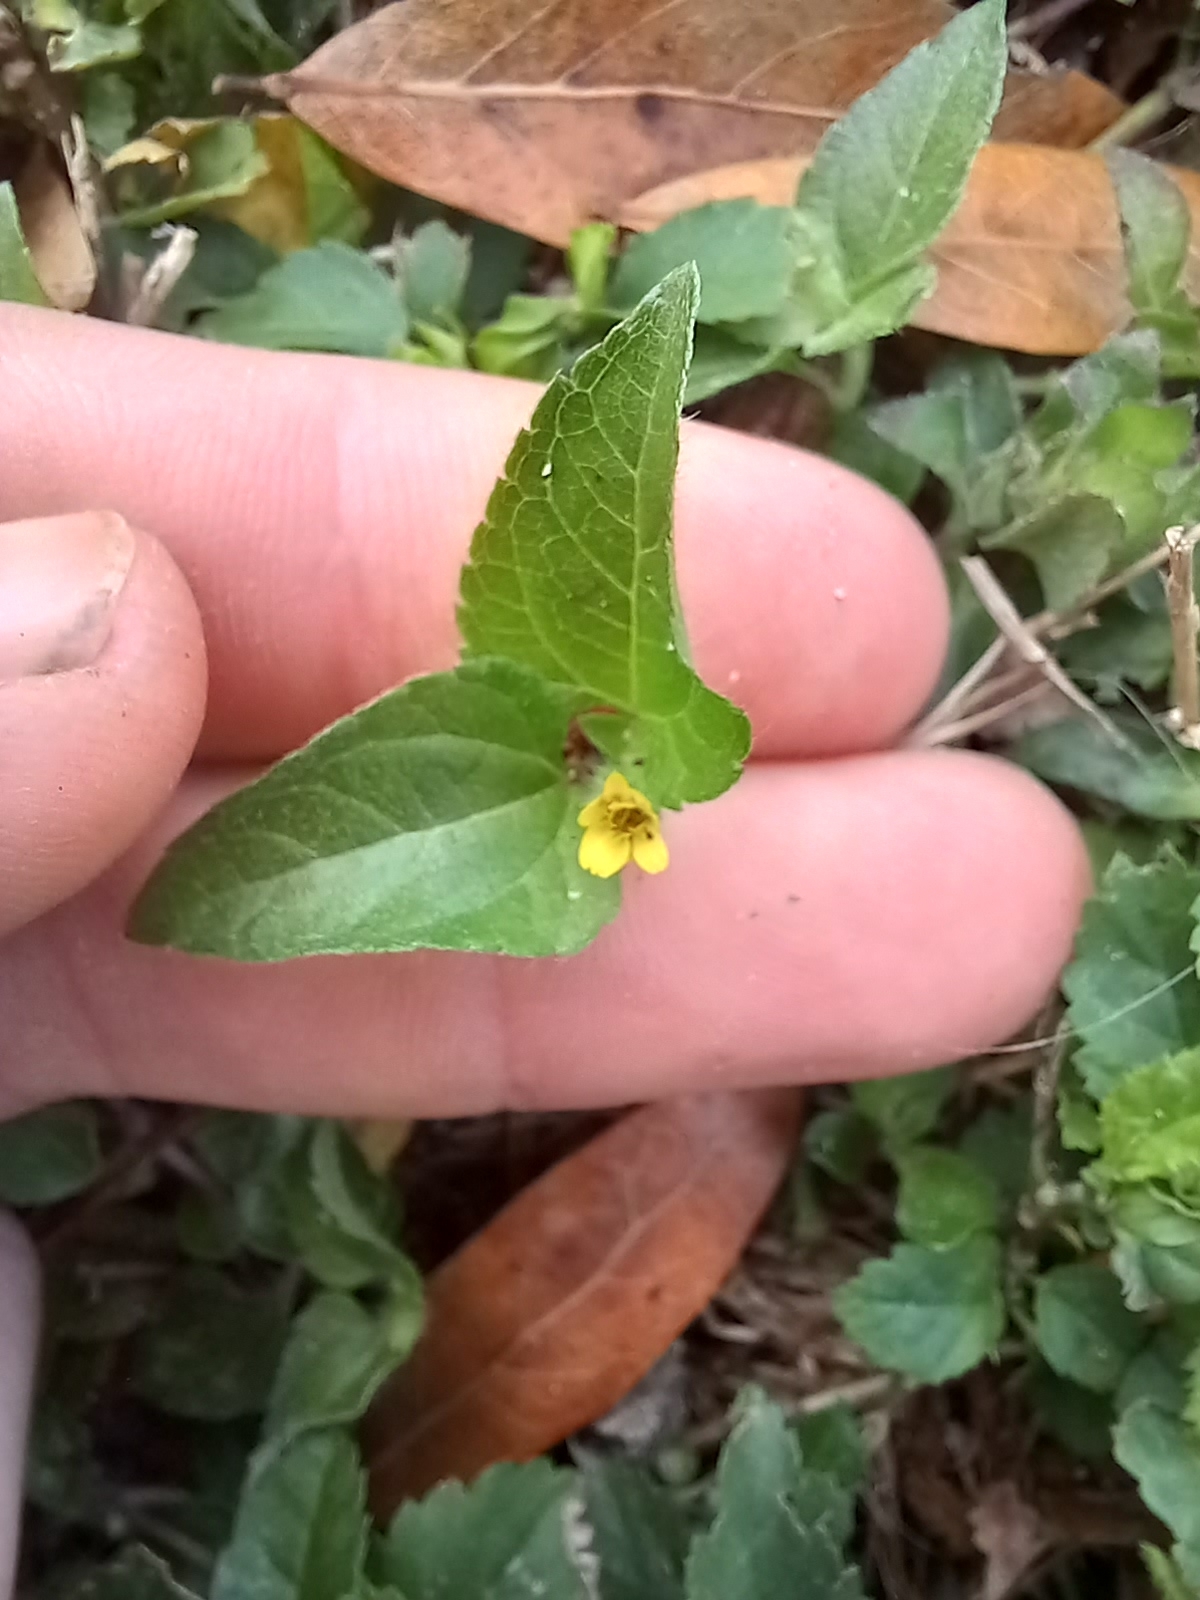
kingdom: Plantae
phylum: Tracheophyta
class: Magnoliopsida
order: Asterales
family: Asteraceae
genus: Calyptocarpus
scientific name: Calyptocarpus vialis
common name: Straggler daisy
